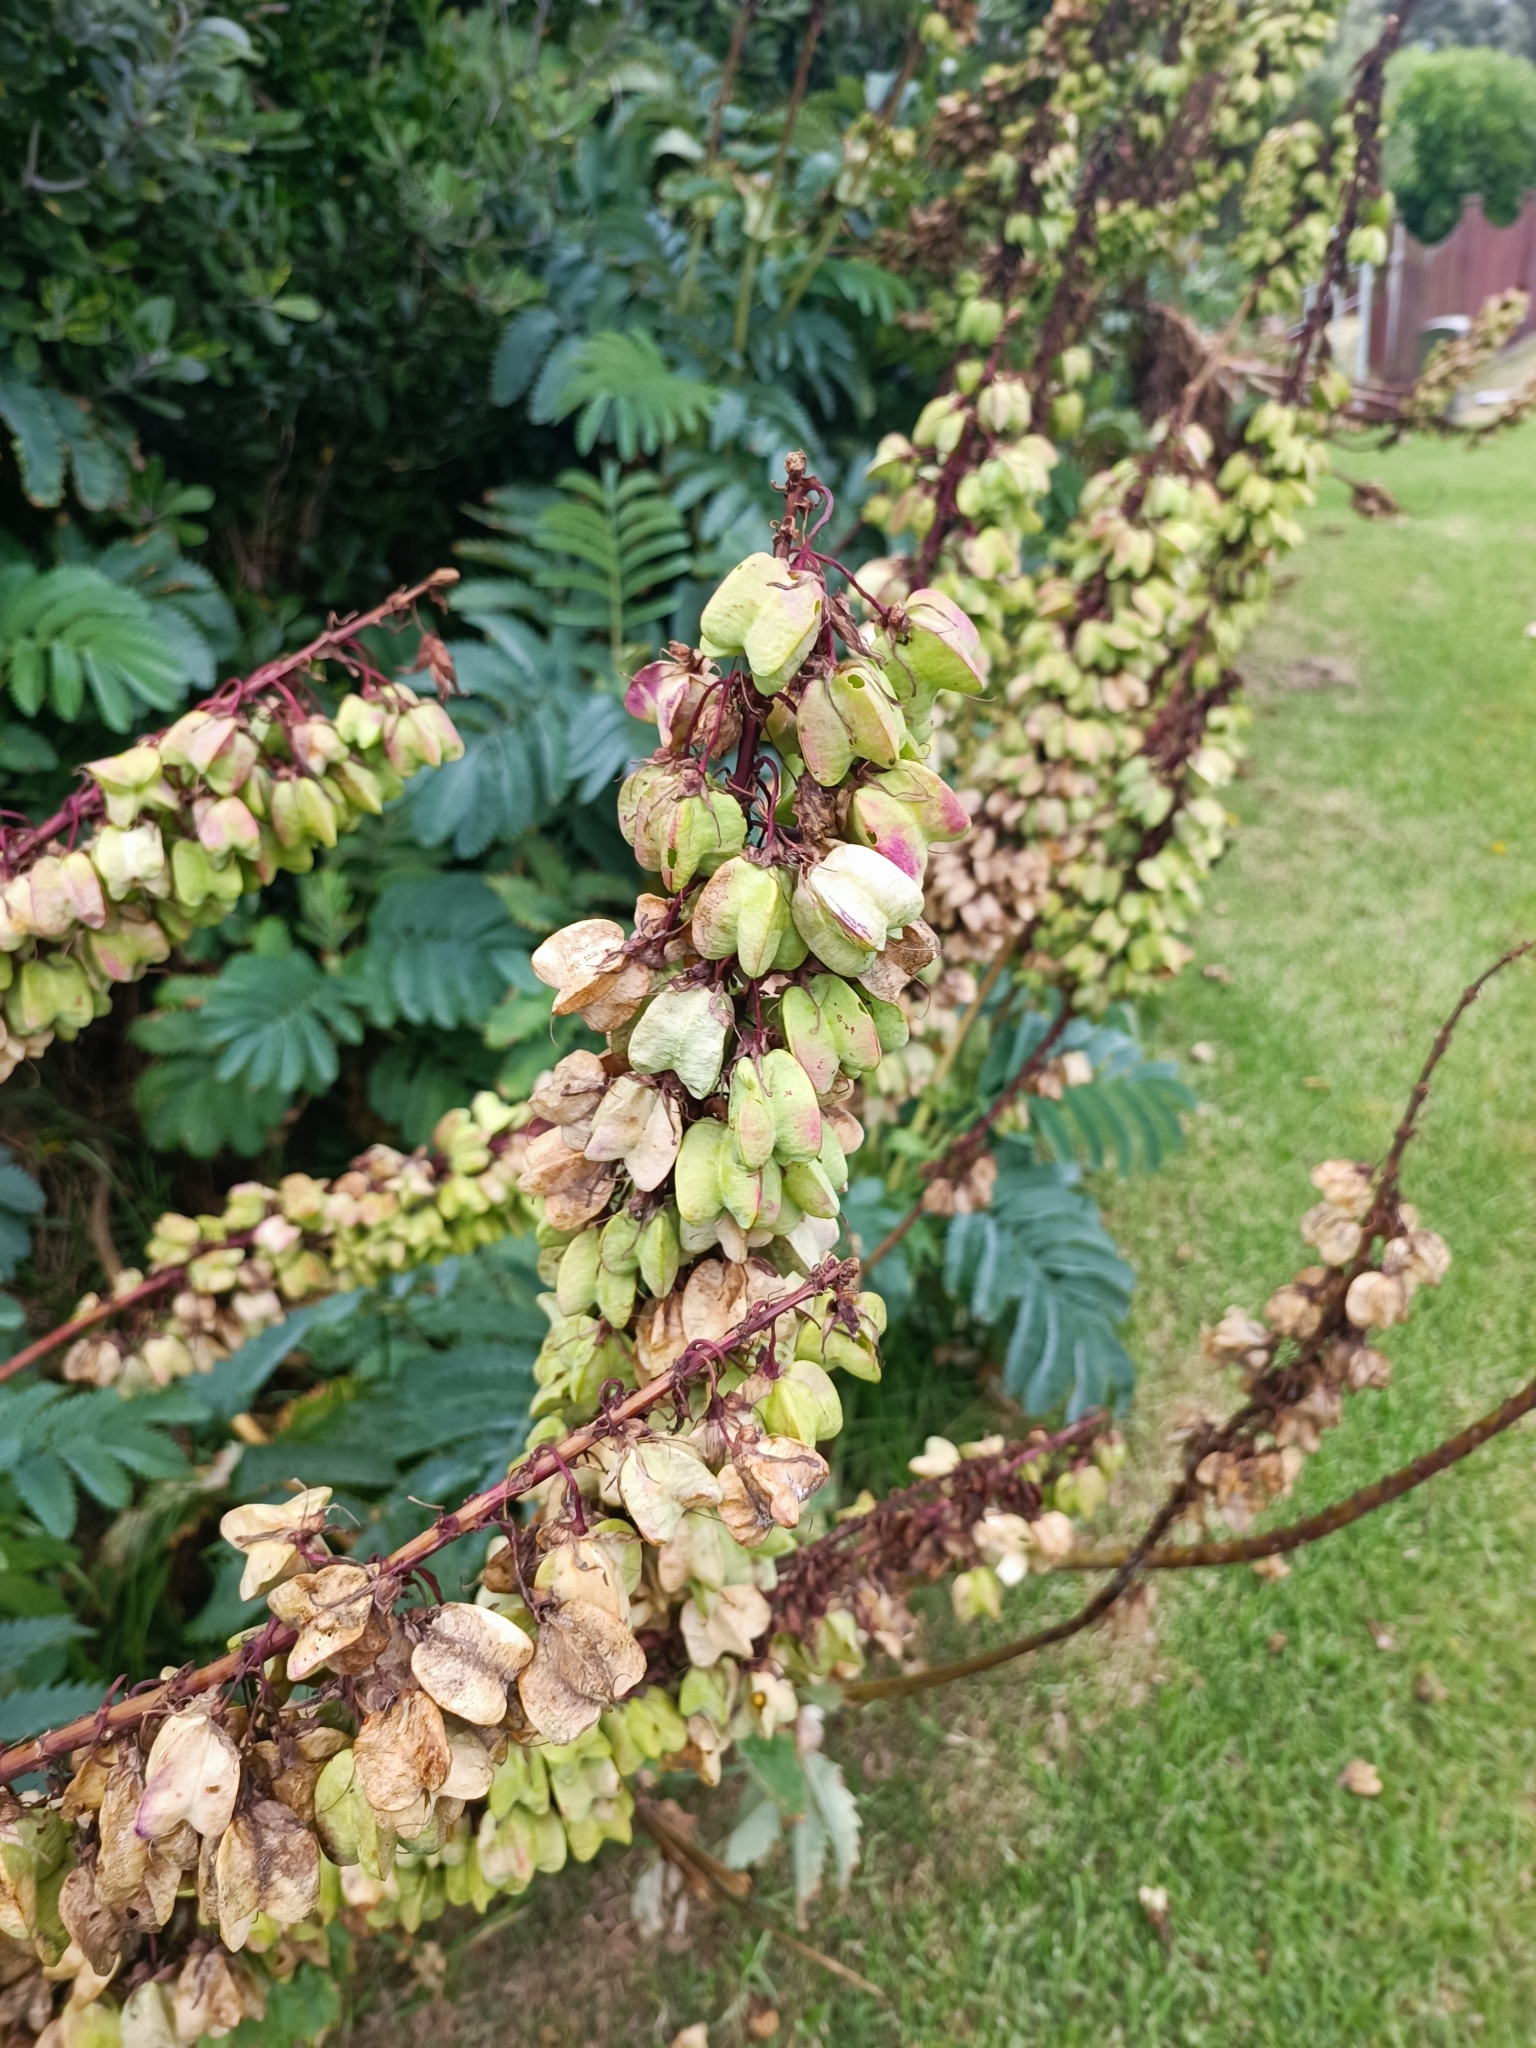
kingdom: Plantae
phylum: Tracheophyta
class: Magnoliopsida
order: Geraniales
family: Melianthaceae
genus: Melianthus
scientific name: Melianthus major
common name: Honey-flower
